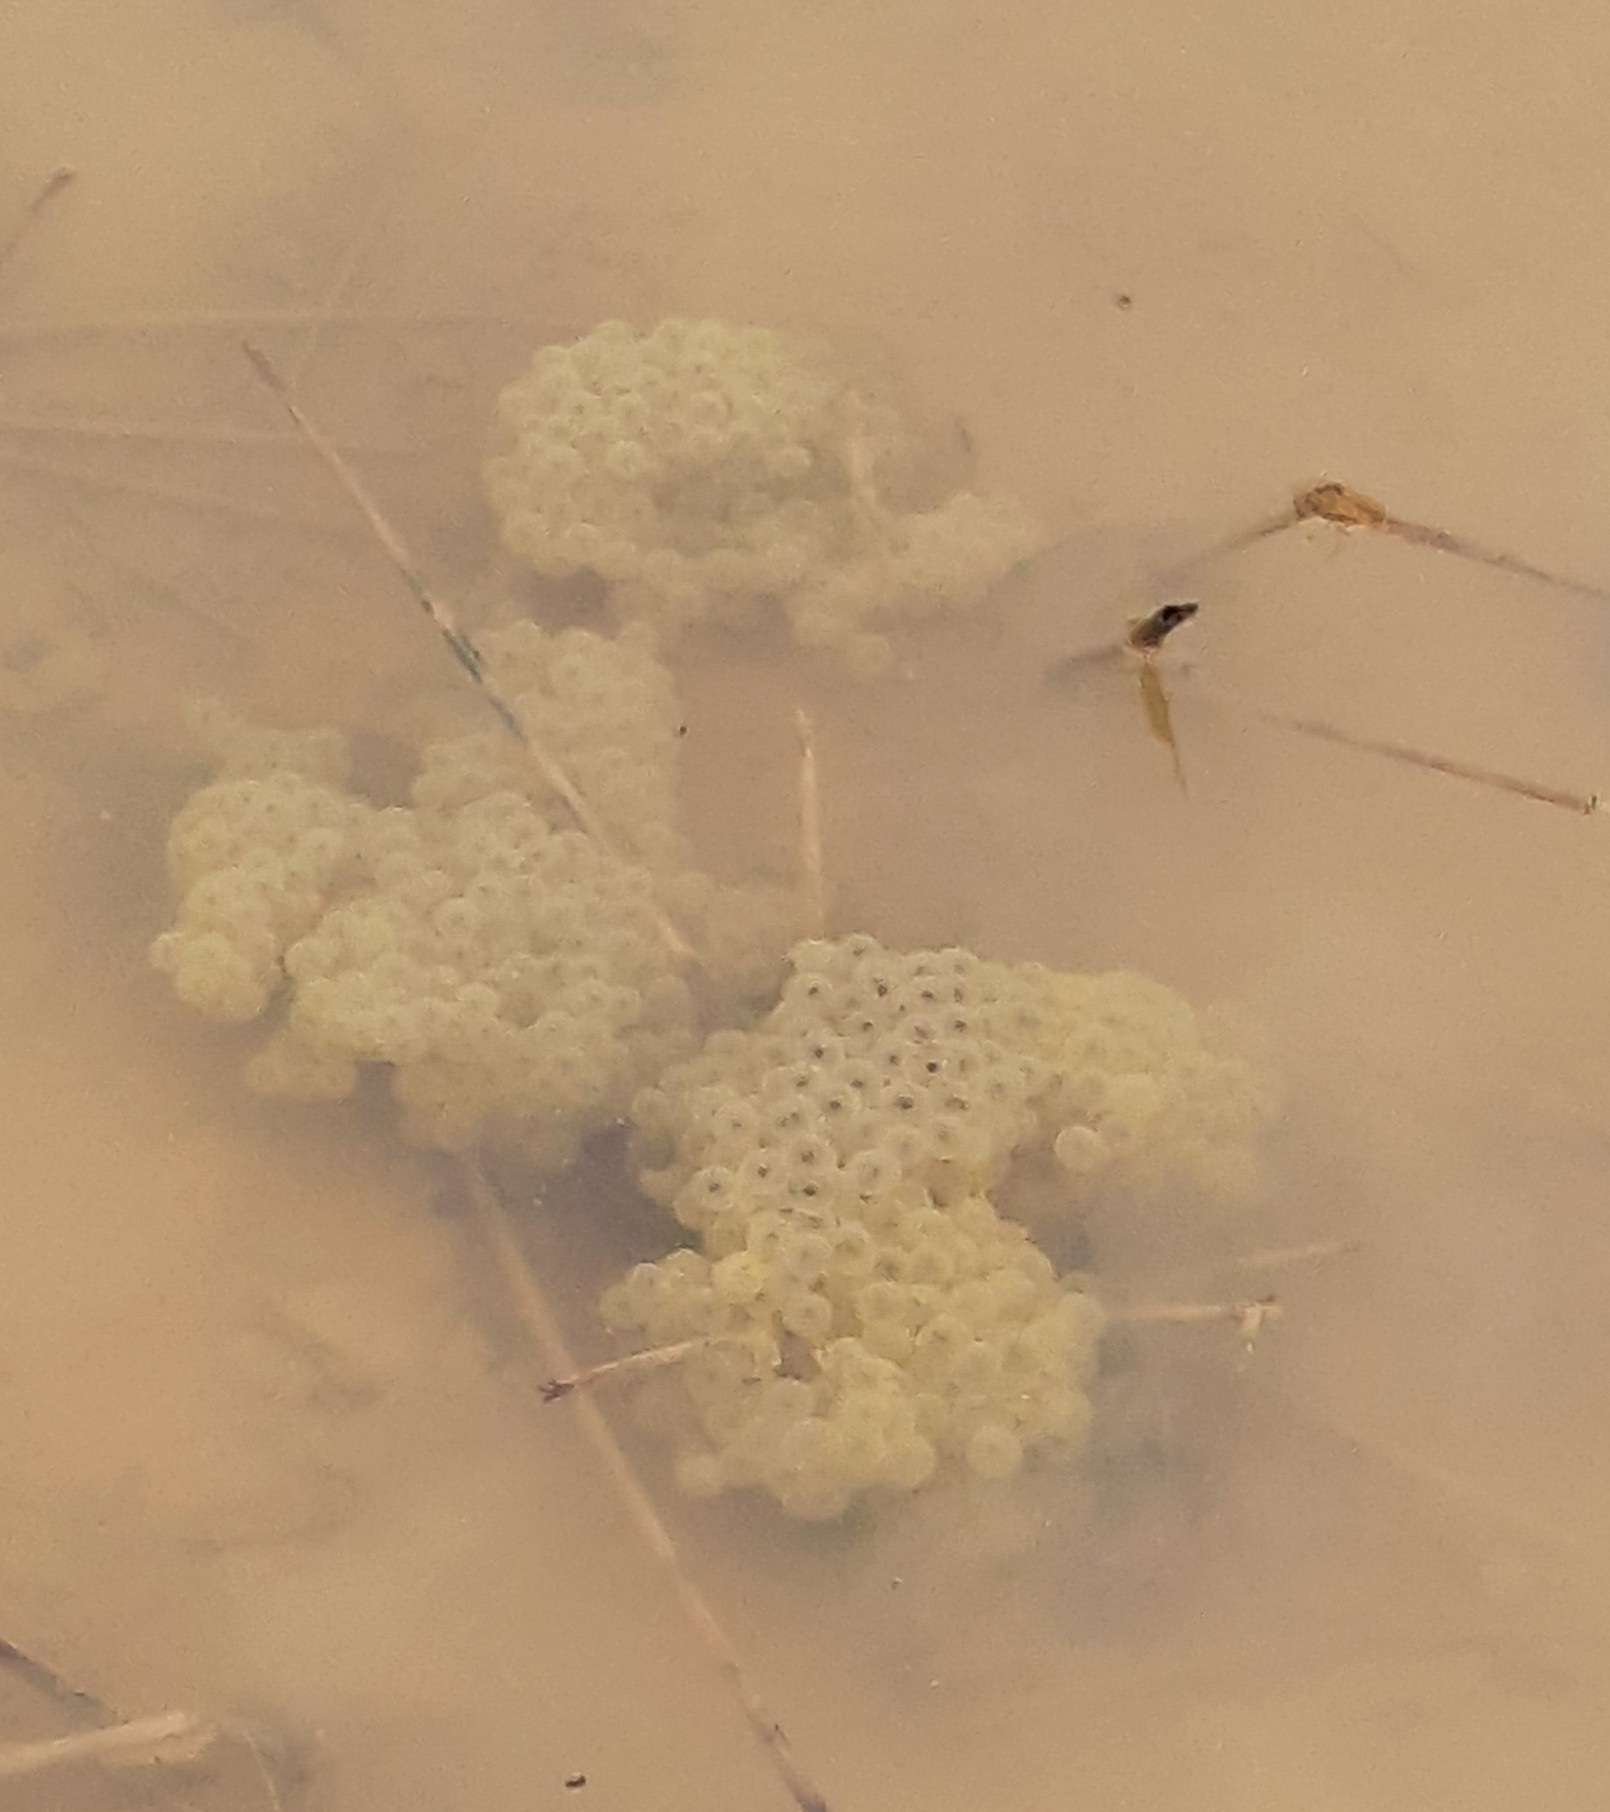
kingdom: Animalia
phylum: Chordata
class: Amphibia
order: Anura
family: Ranidae
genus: Rana
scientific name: Rana temporaria
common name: Common frog
